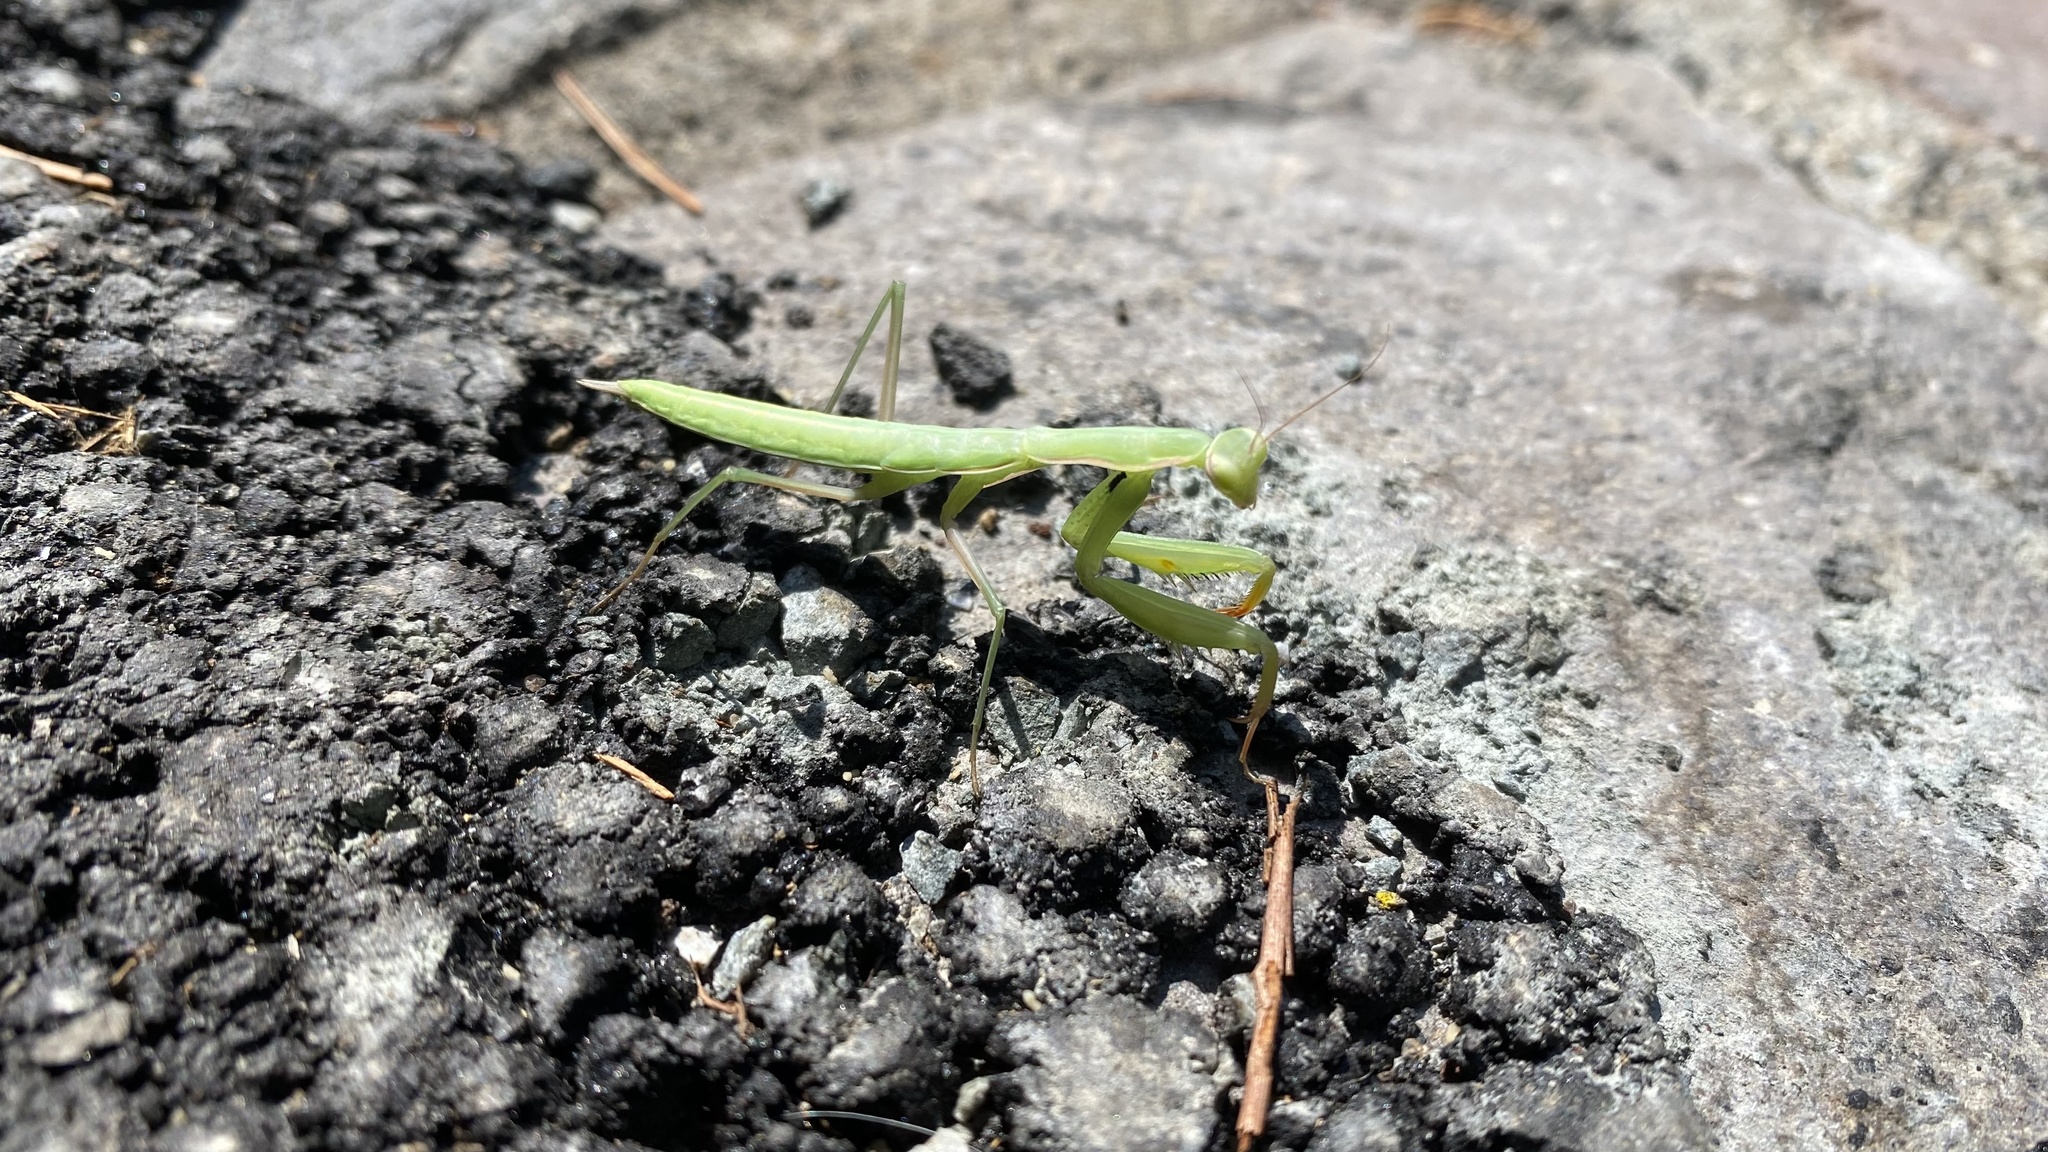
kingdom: Animalia
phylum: Arthropoda
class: Insecta
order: Mantodea
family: Mantidae
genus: Mantis
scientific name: Mantis religiosa
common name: Praying mantis
